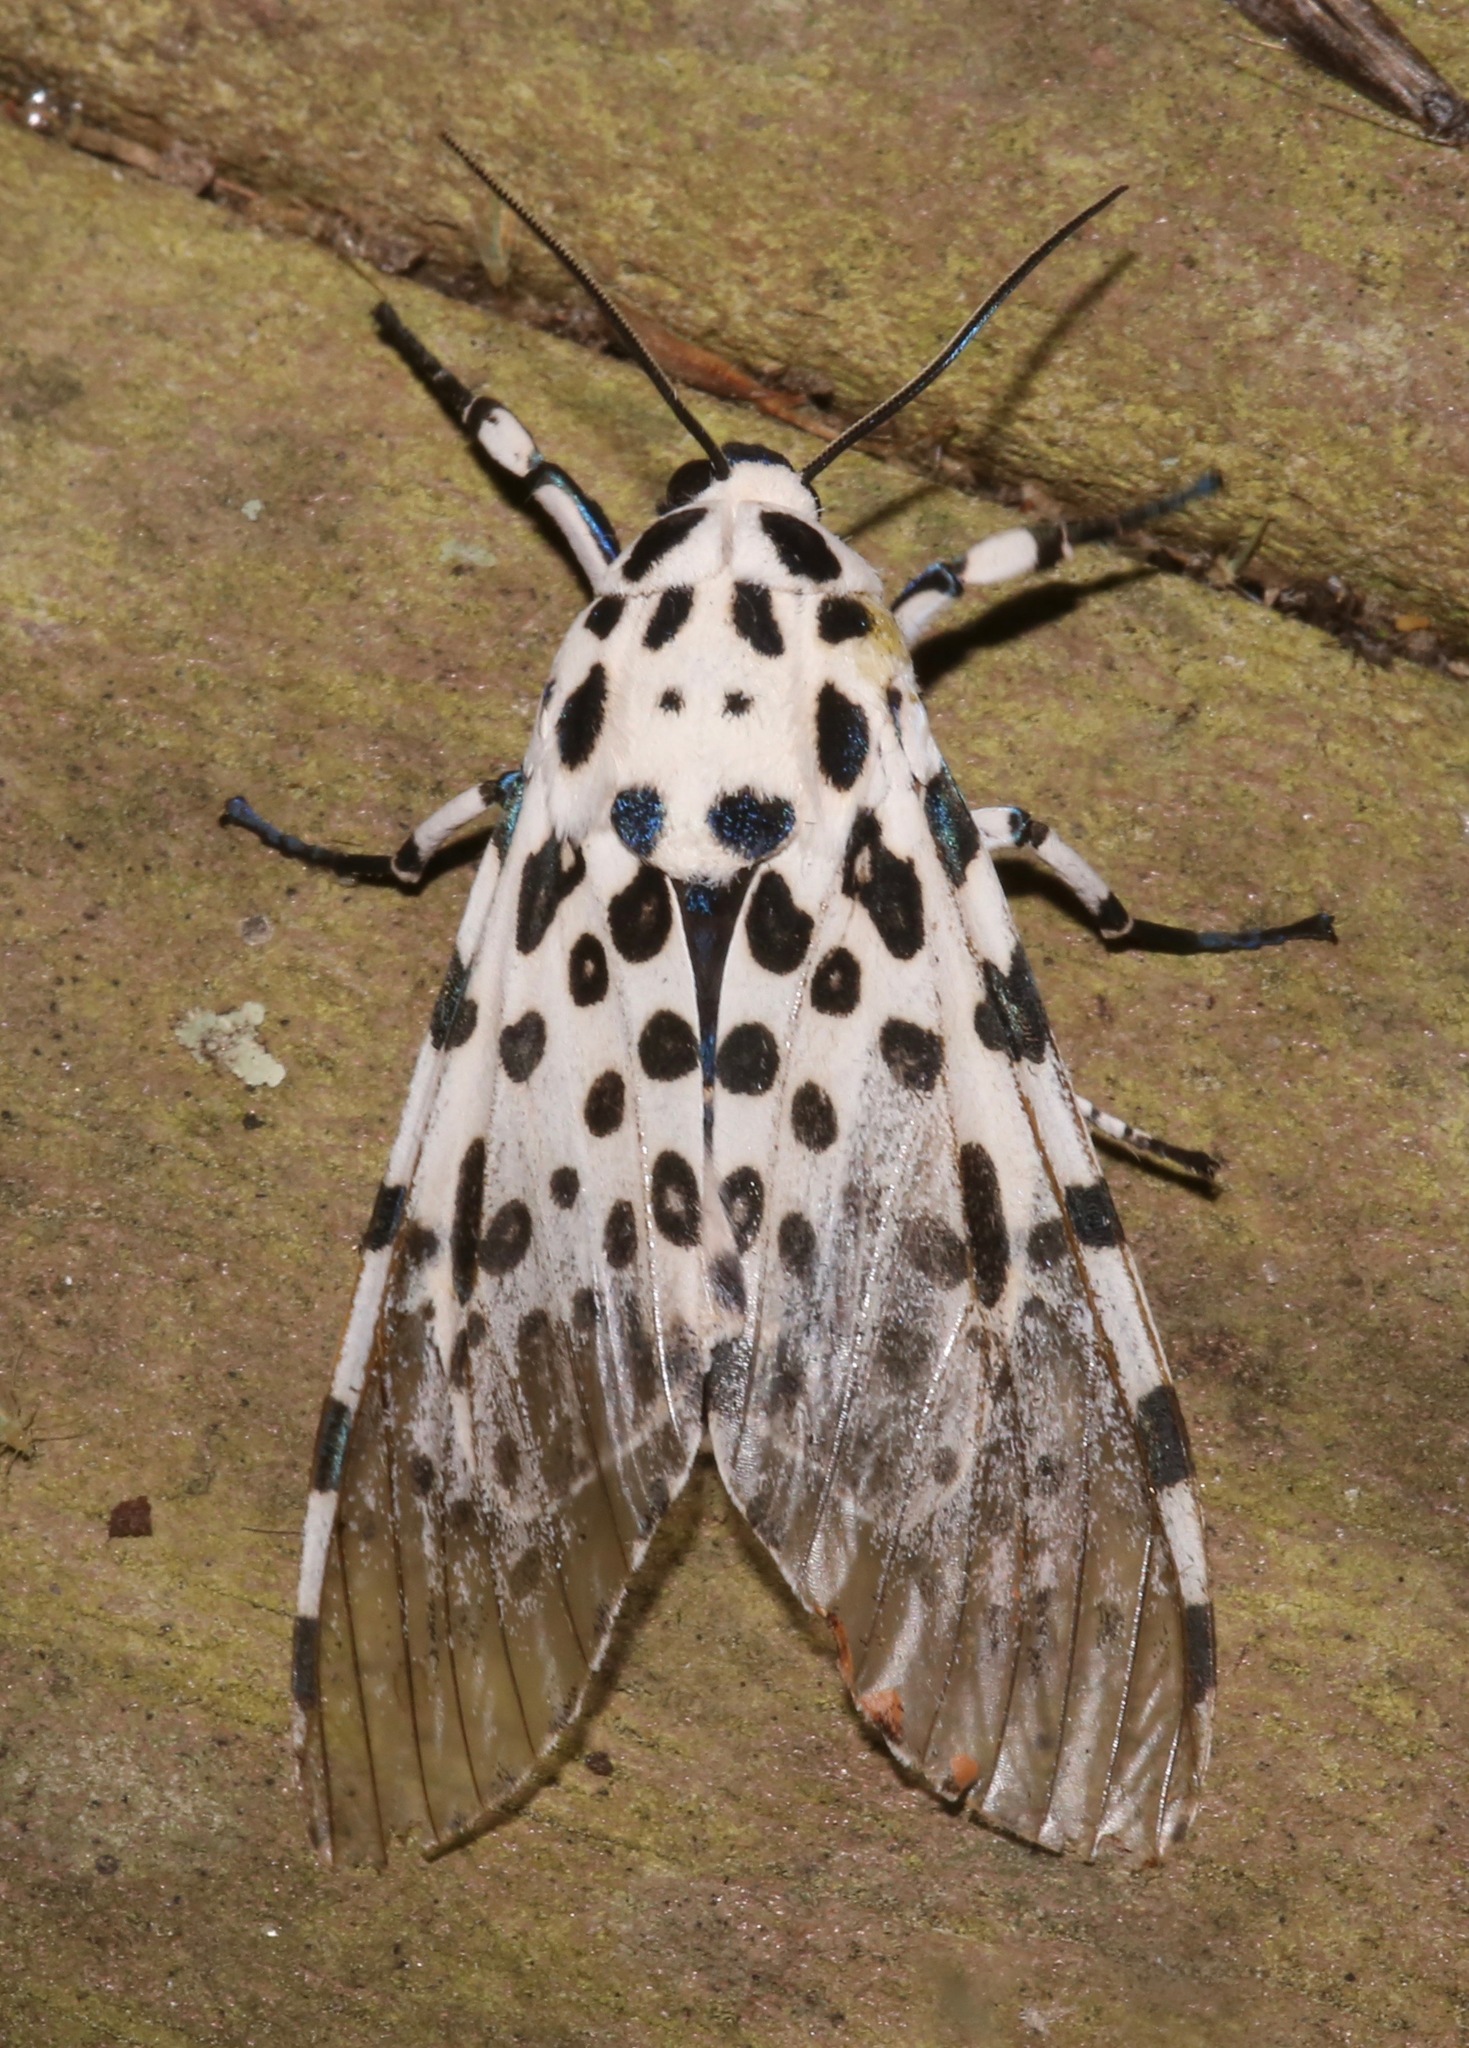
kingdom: Animalia
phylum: Arthropoda
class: Insecta
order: Lepidoptera
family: Erebidae
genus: Hypercompe
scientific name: Hypercompe scribonia
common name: Giant leopard moth
